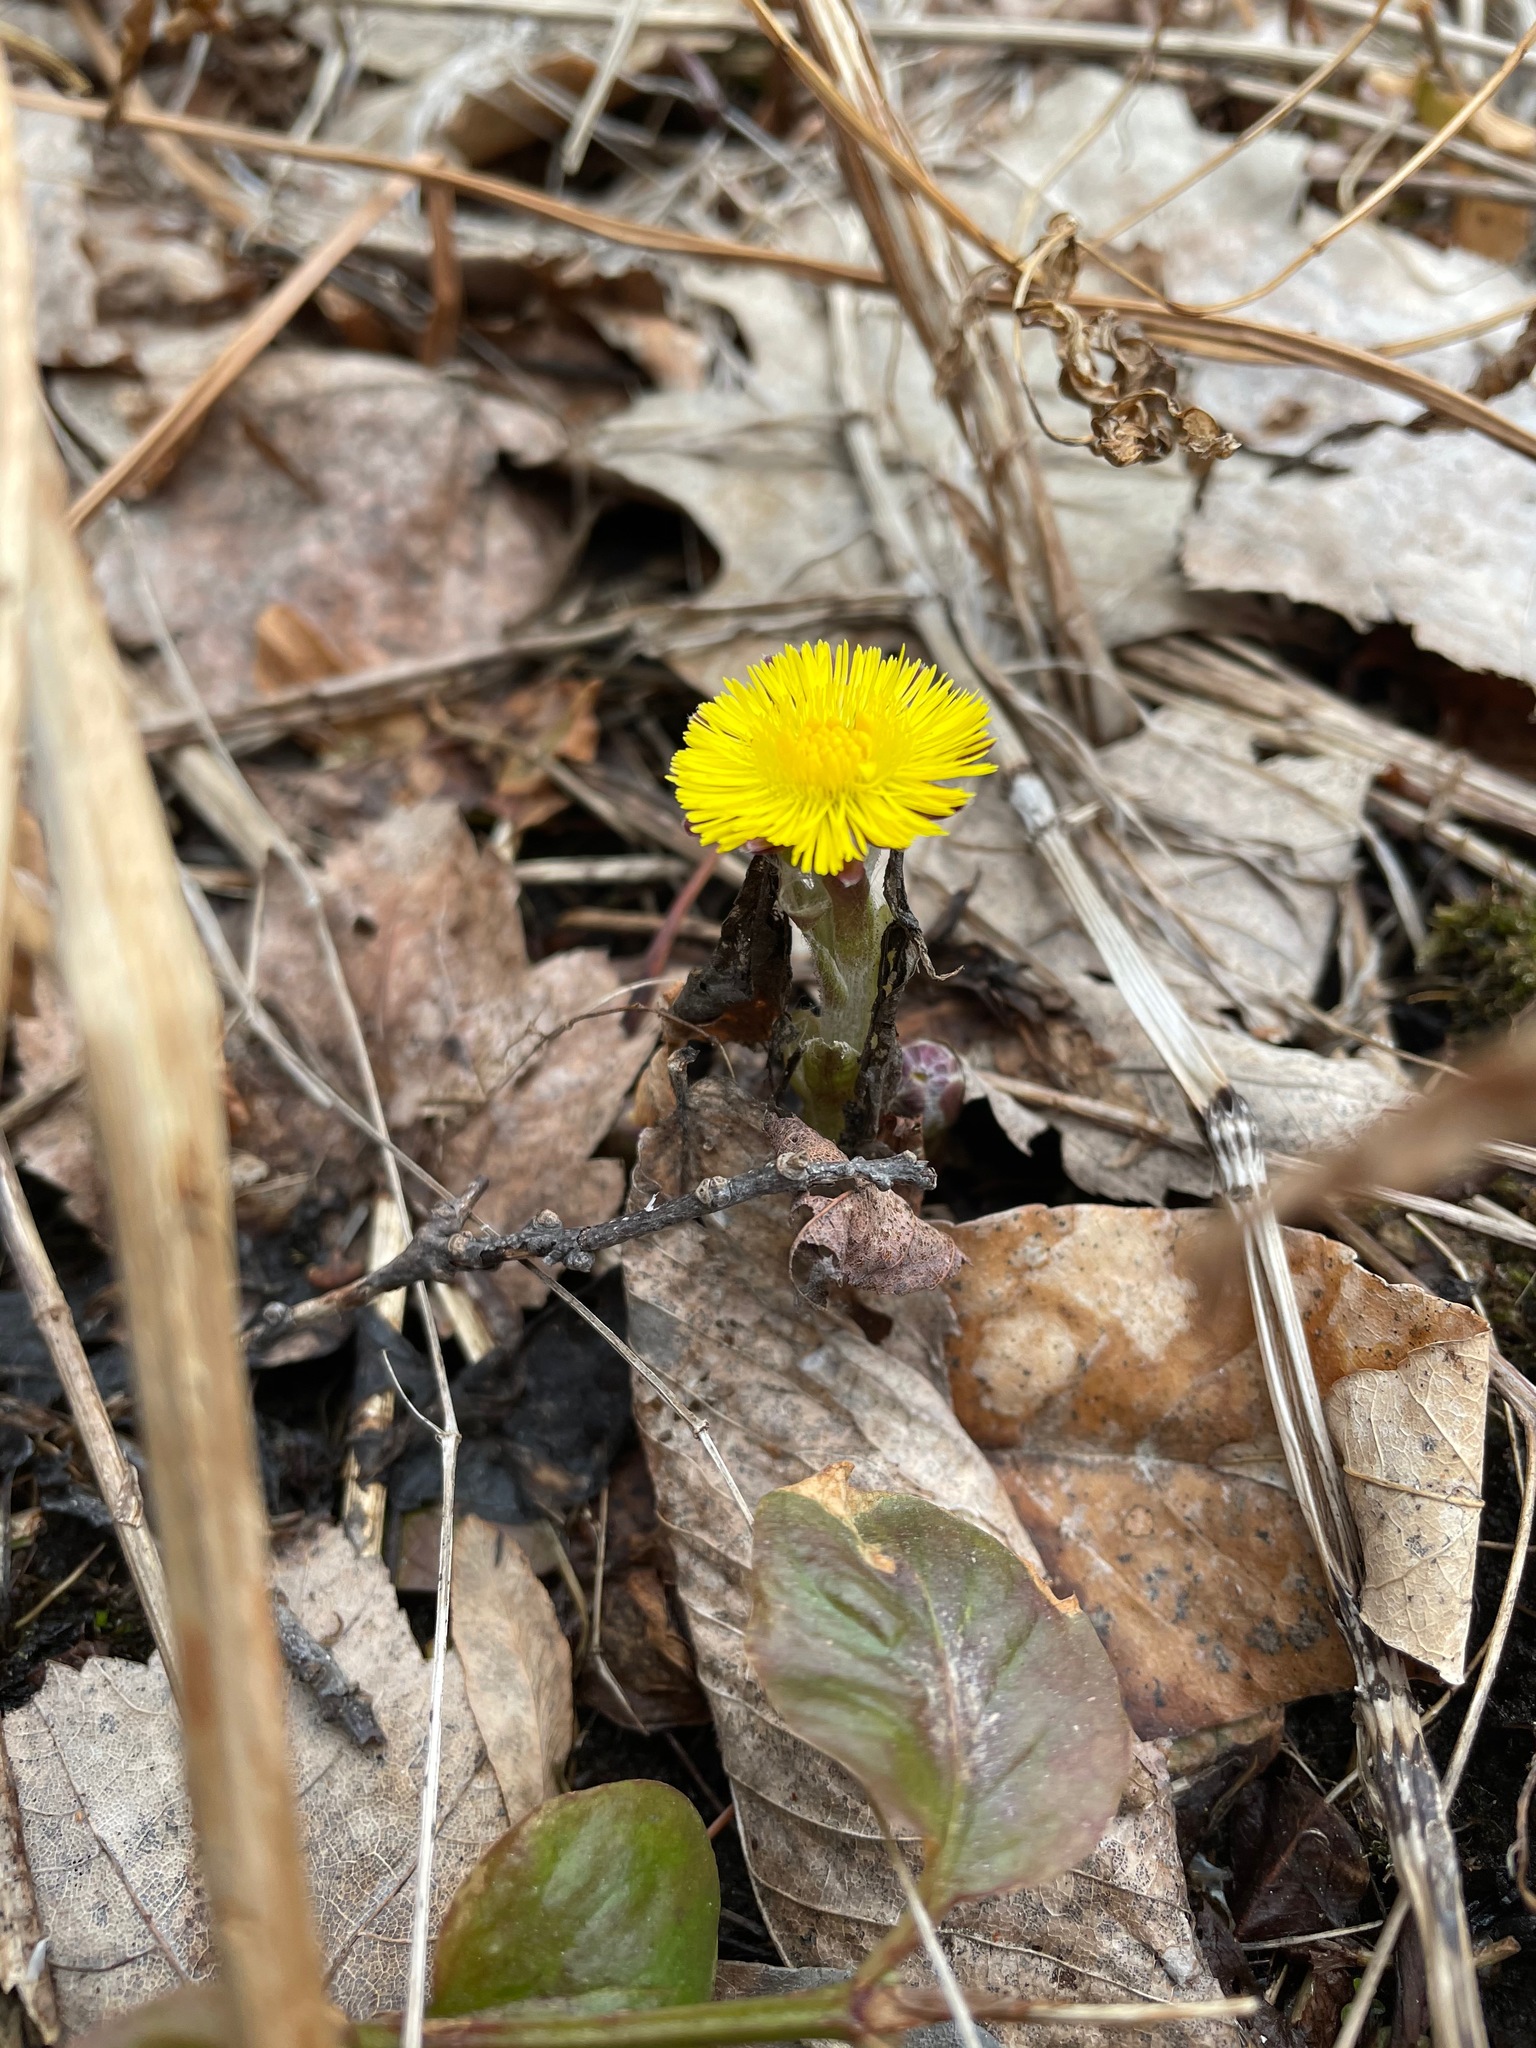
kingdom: Plantae
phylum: Tracheophyta
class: Magnoliopsida
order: Asterales
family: Asteraceae
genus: Tussilago
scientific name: Tussilago farfara
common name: Coltsfoot
